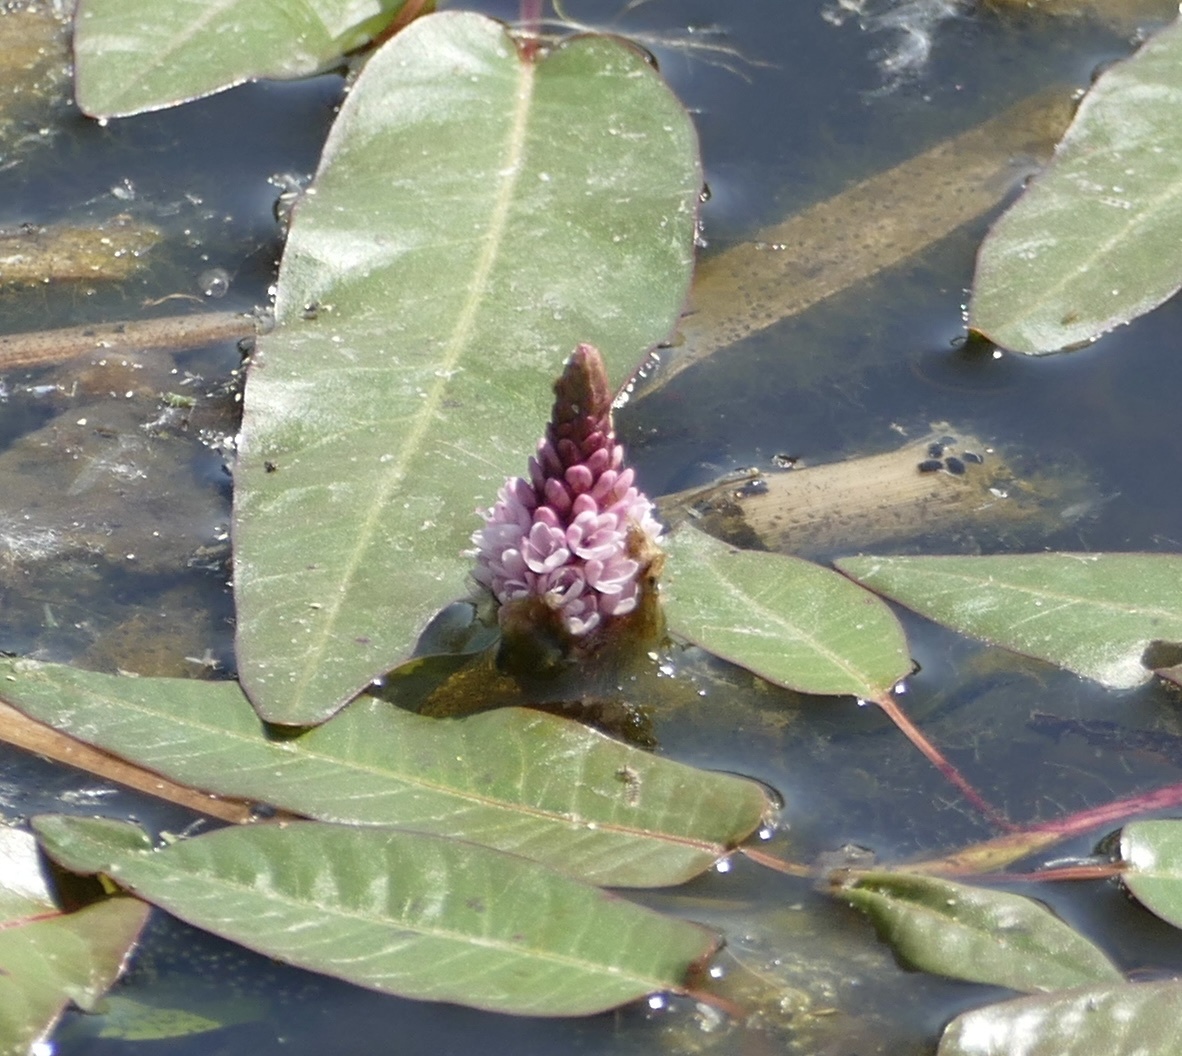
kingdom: Plantae
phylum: Tracheophyta
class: Magnoliopsida
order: Caryophyllales
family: Polygonaceae
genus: Persicaria
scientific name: Persicaria amphibia
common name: Amphibious bistort
